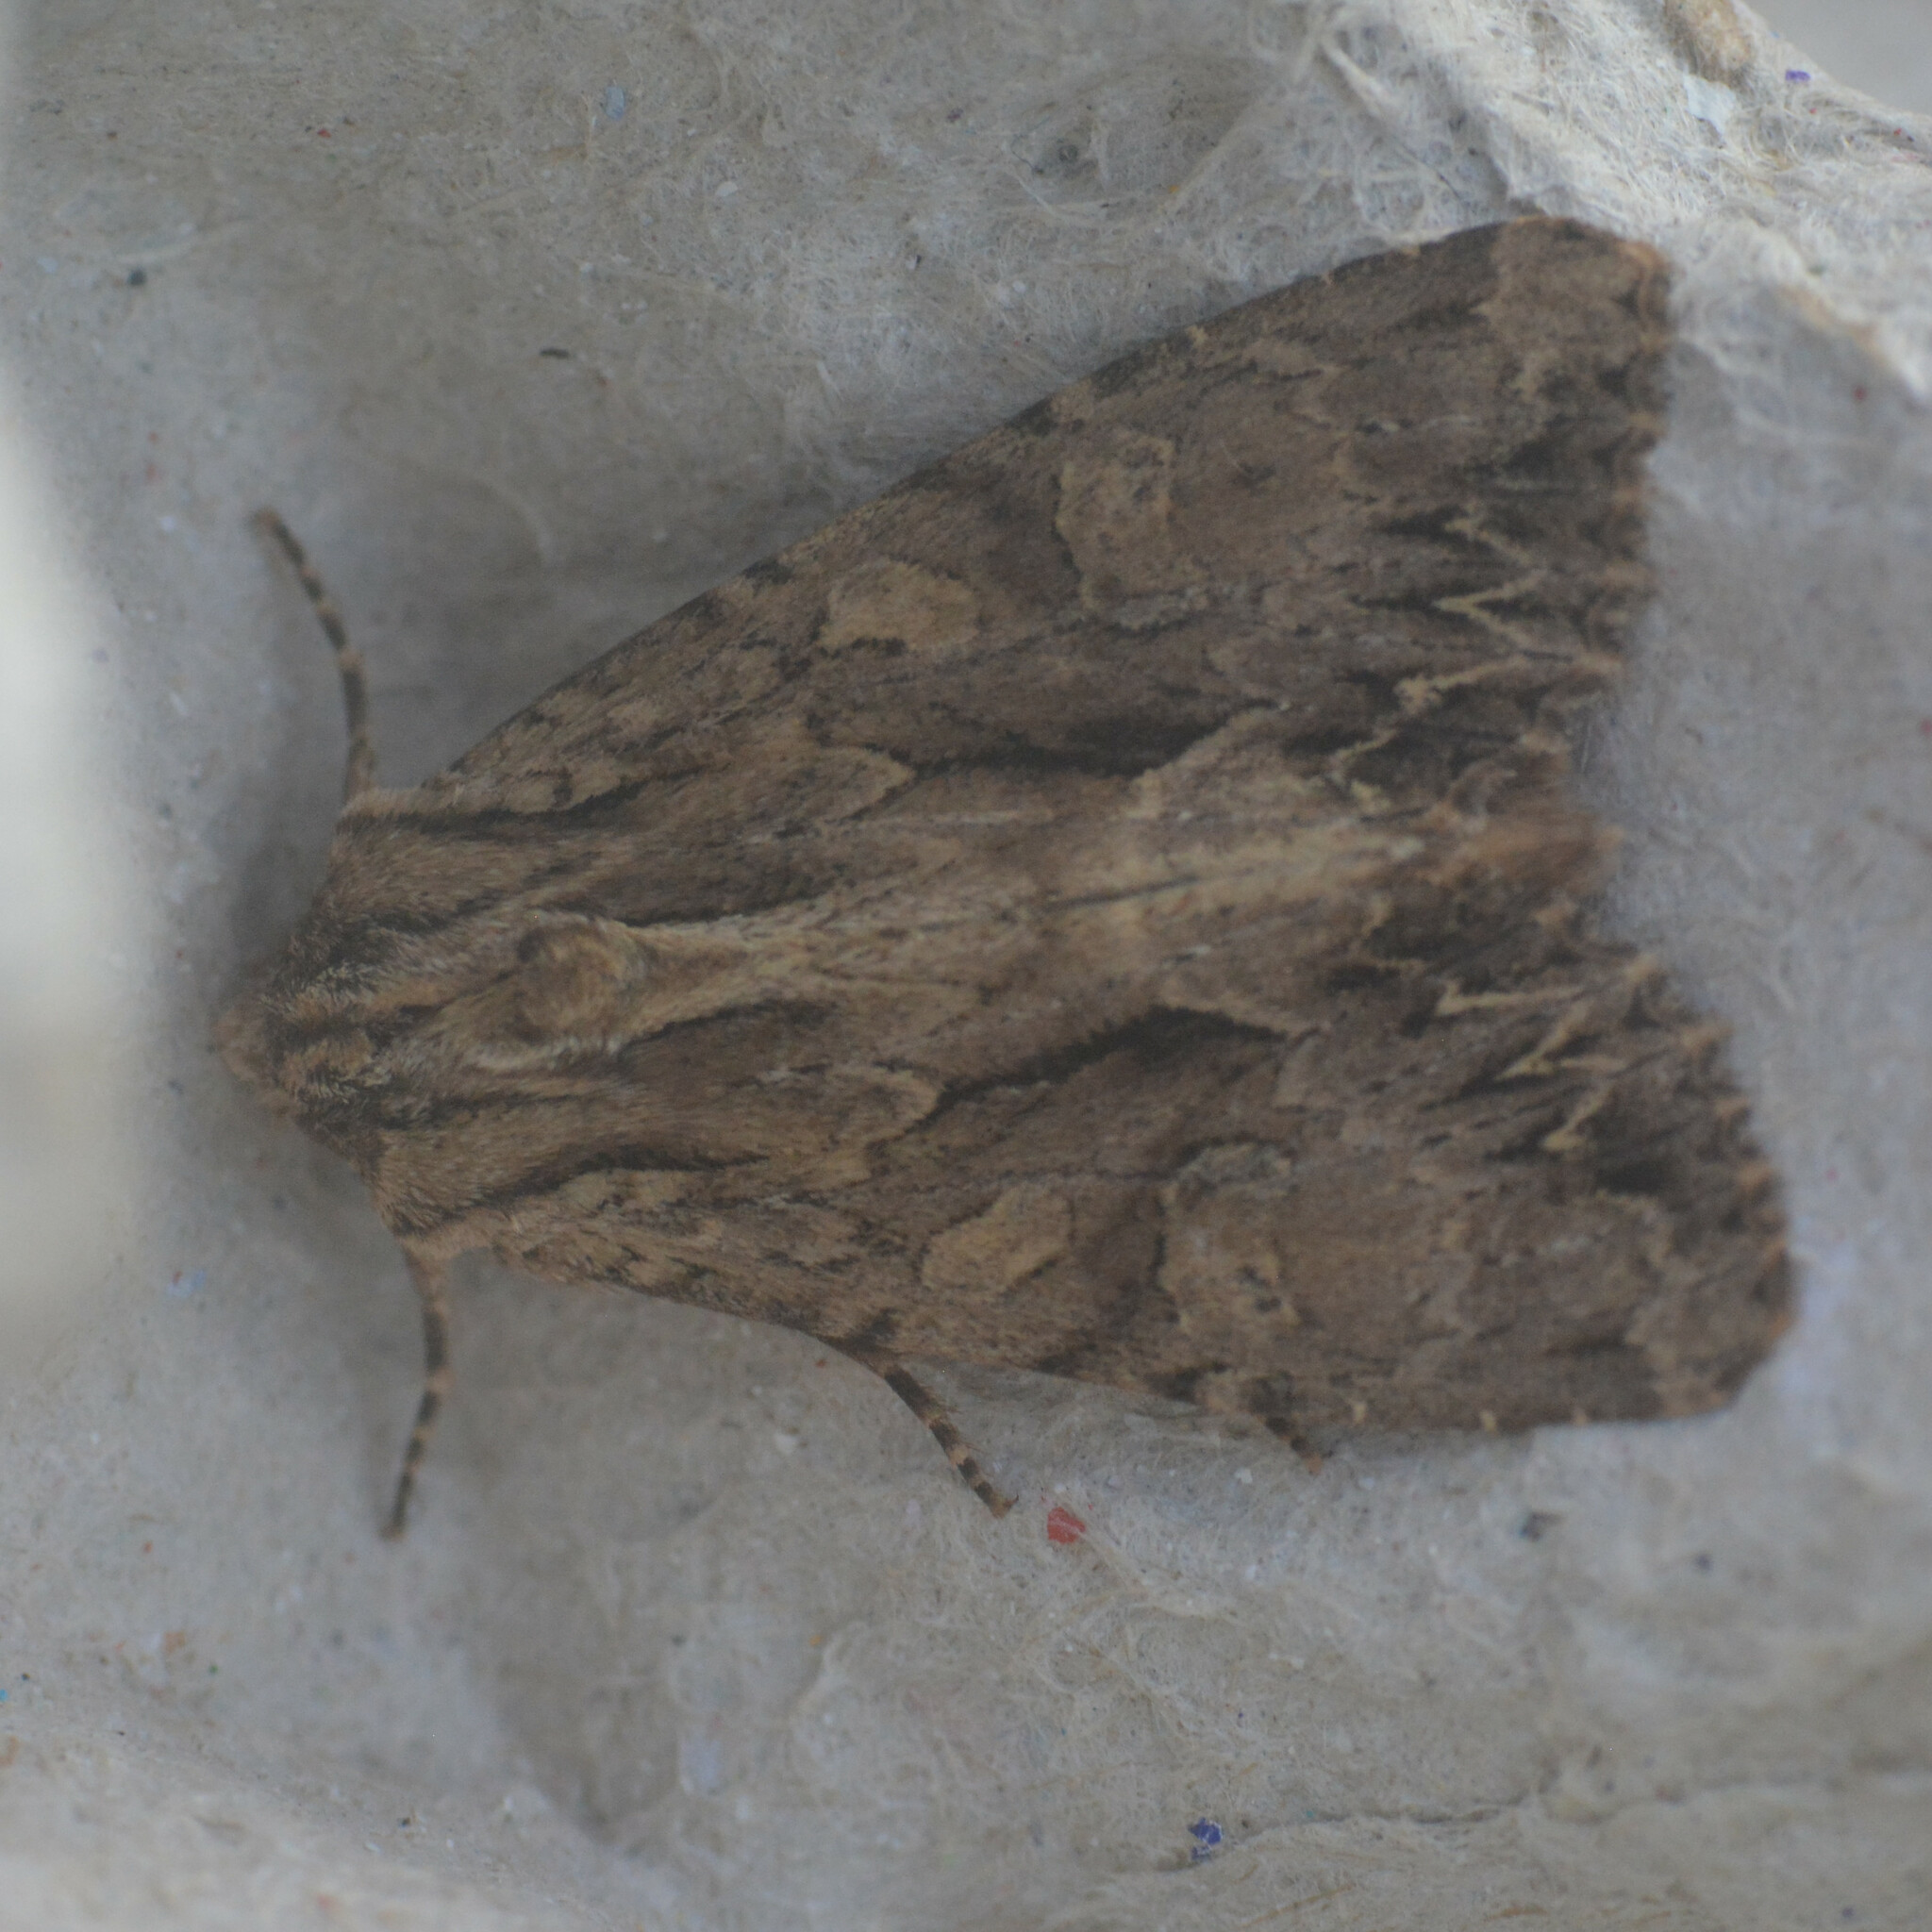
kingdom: Animalia
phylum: Arthropoda
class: Insecta
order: Lepidoptera
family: Noctuidae
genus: Apamea
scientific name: Apamea monoglypha
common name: Dark arches
